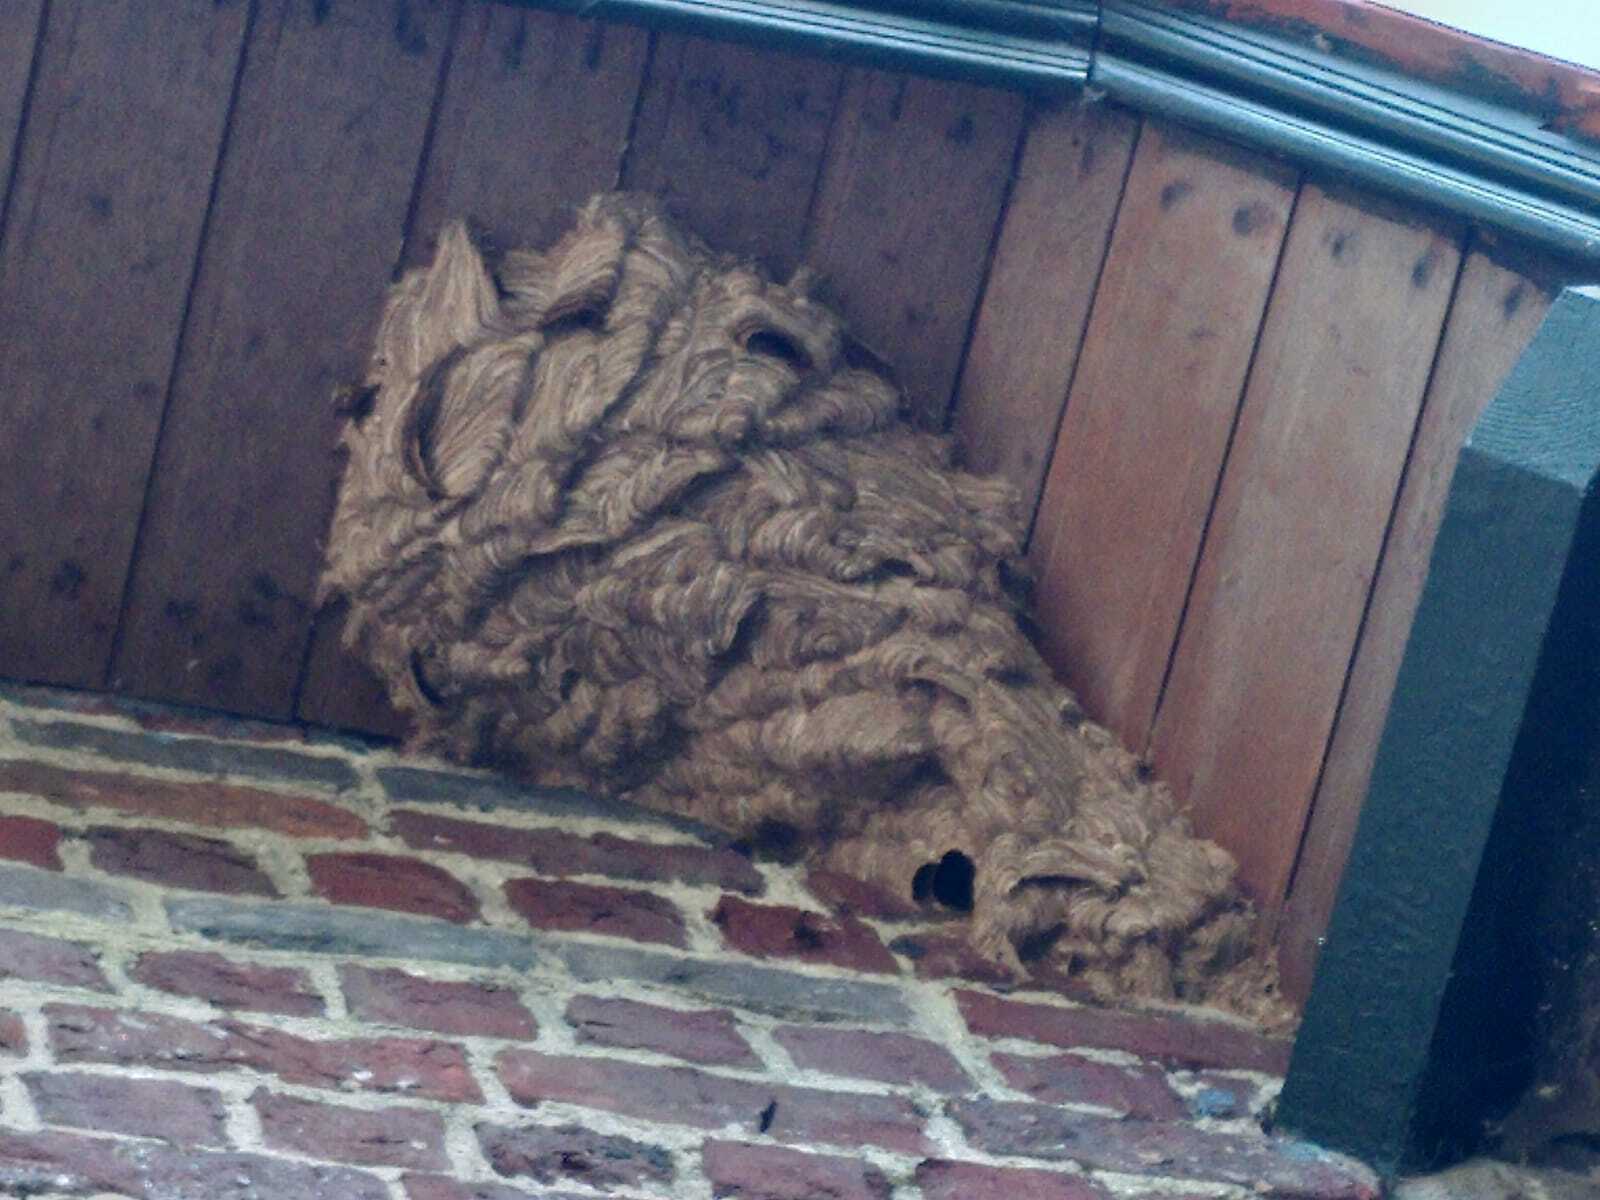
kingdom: Animalia
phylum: Arthropoda
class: Insecta
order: Hymenoptera
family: Vespidae
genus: Vespa
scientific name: Vespa velutina
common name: Asian hornet
